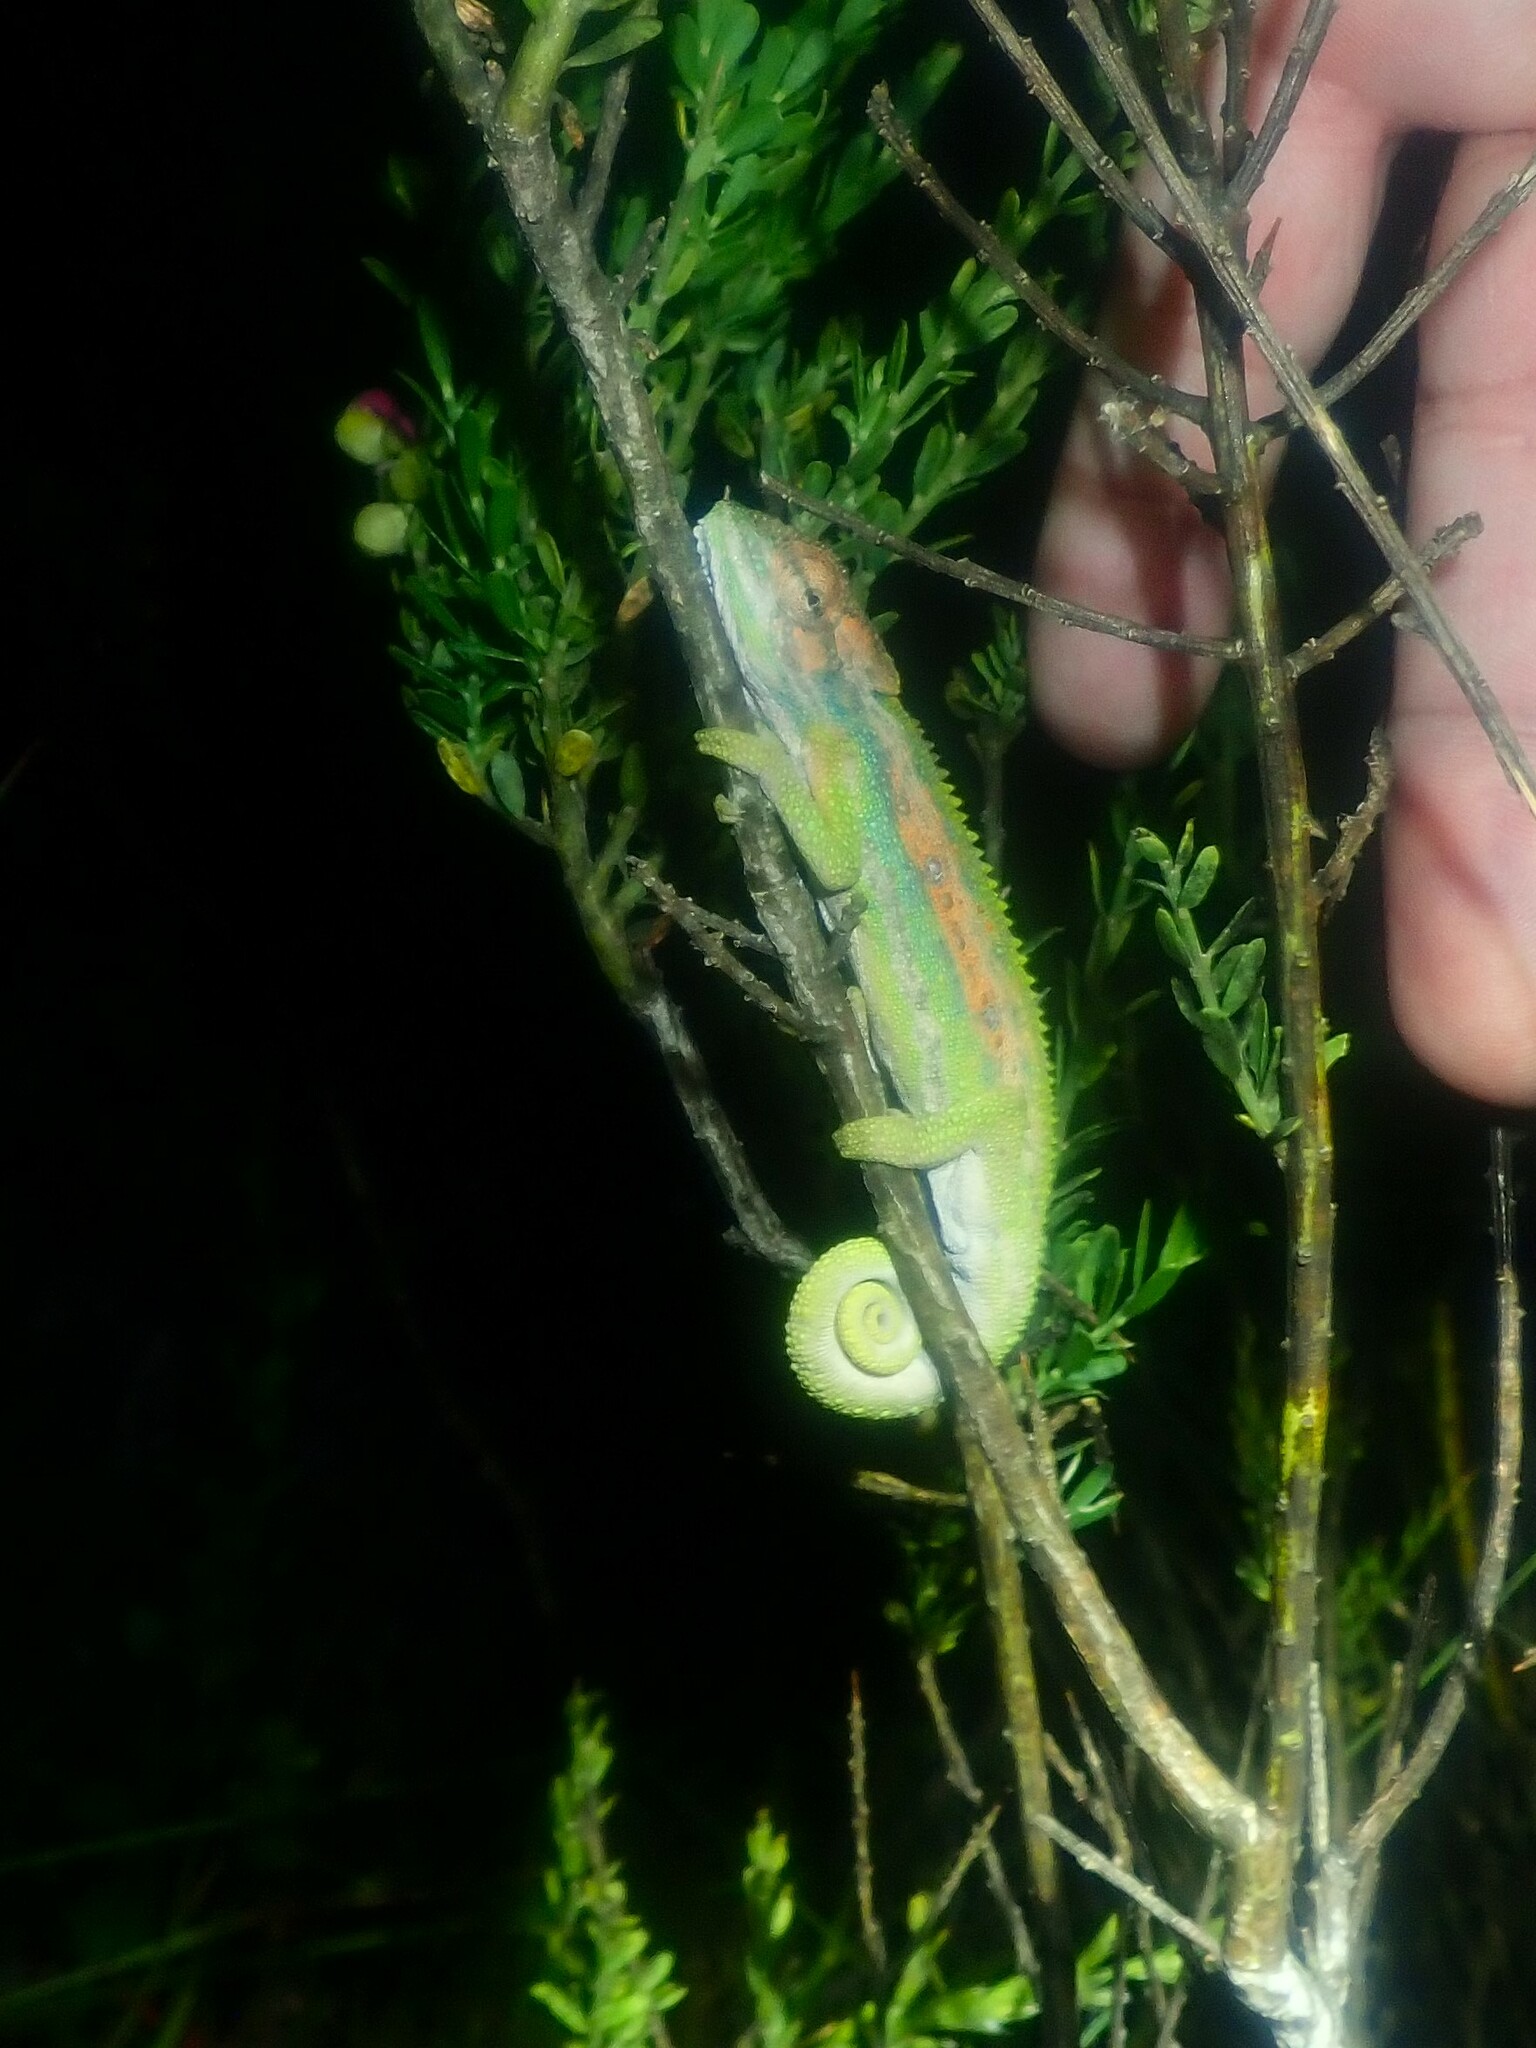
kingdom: Animalia
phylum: Chordata
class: Squamata
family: Chamaeleonidae
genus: Bradypodion
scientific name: Bradypodion pumilum
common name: Cape dwarf chameleon
